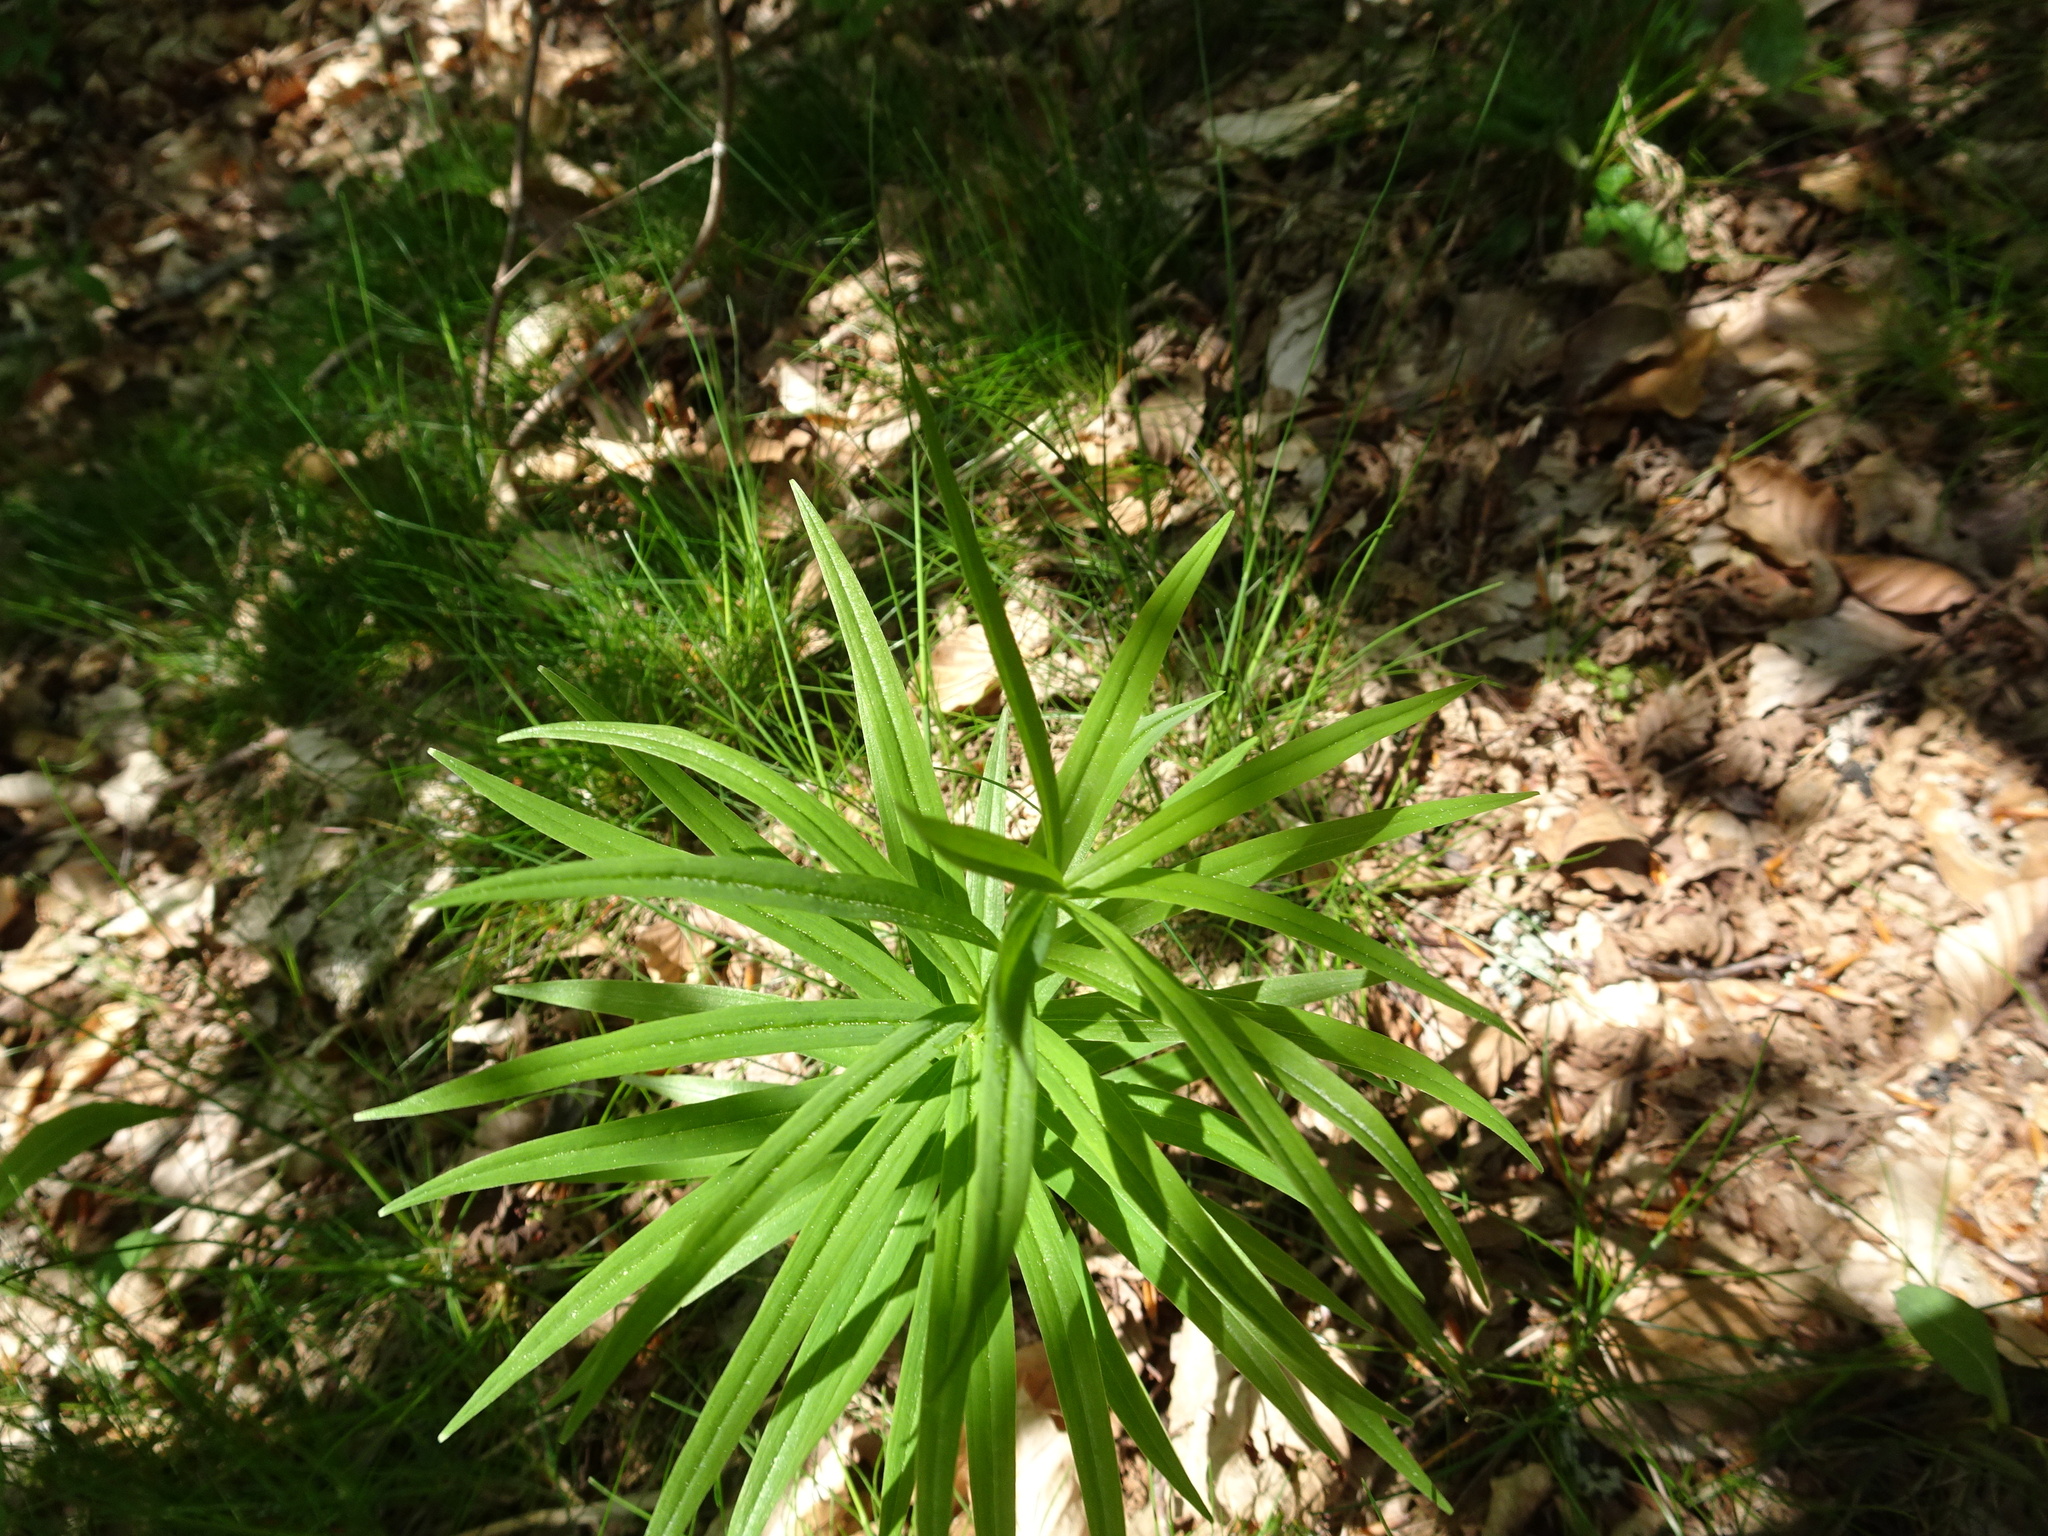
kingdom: Plantae
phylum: Tracheophyta
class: Liliopsida
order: Asparagales
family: Asparagaceae
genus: Polygonatum
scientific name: Polygonatum verticillatum
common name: Whorled solomon's-seal
